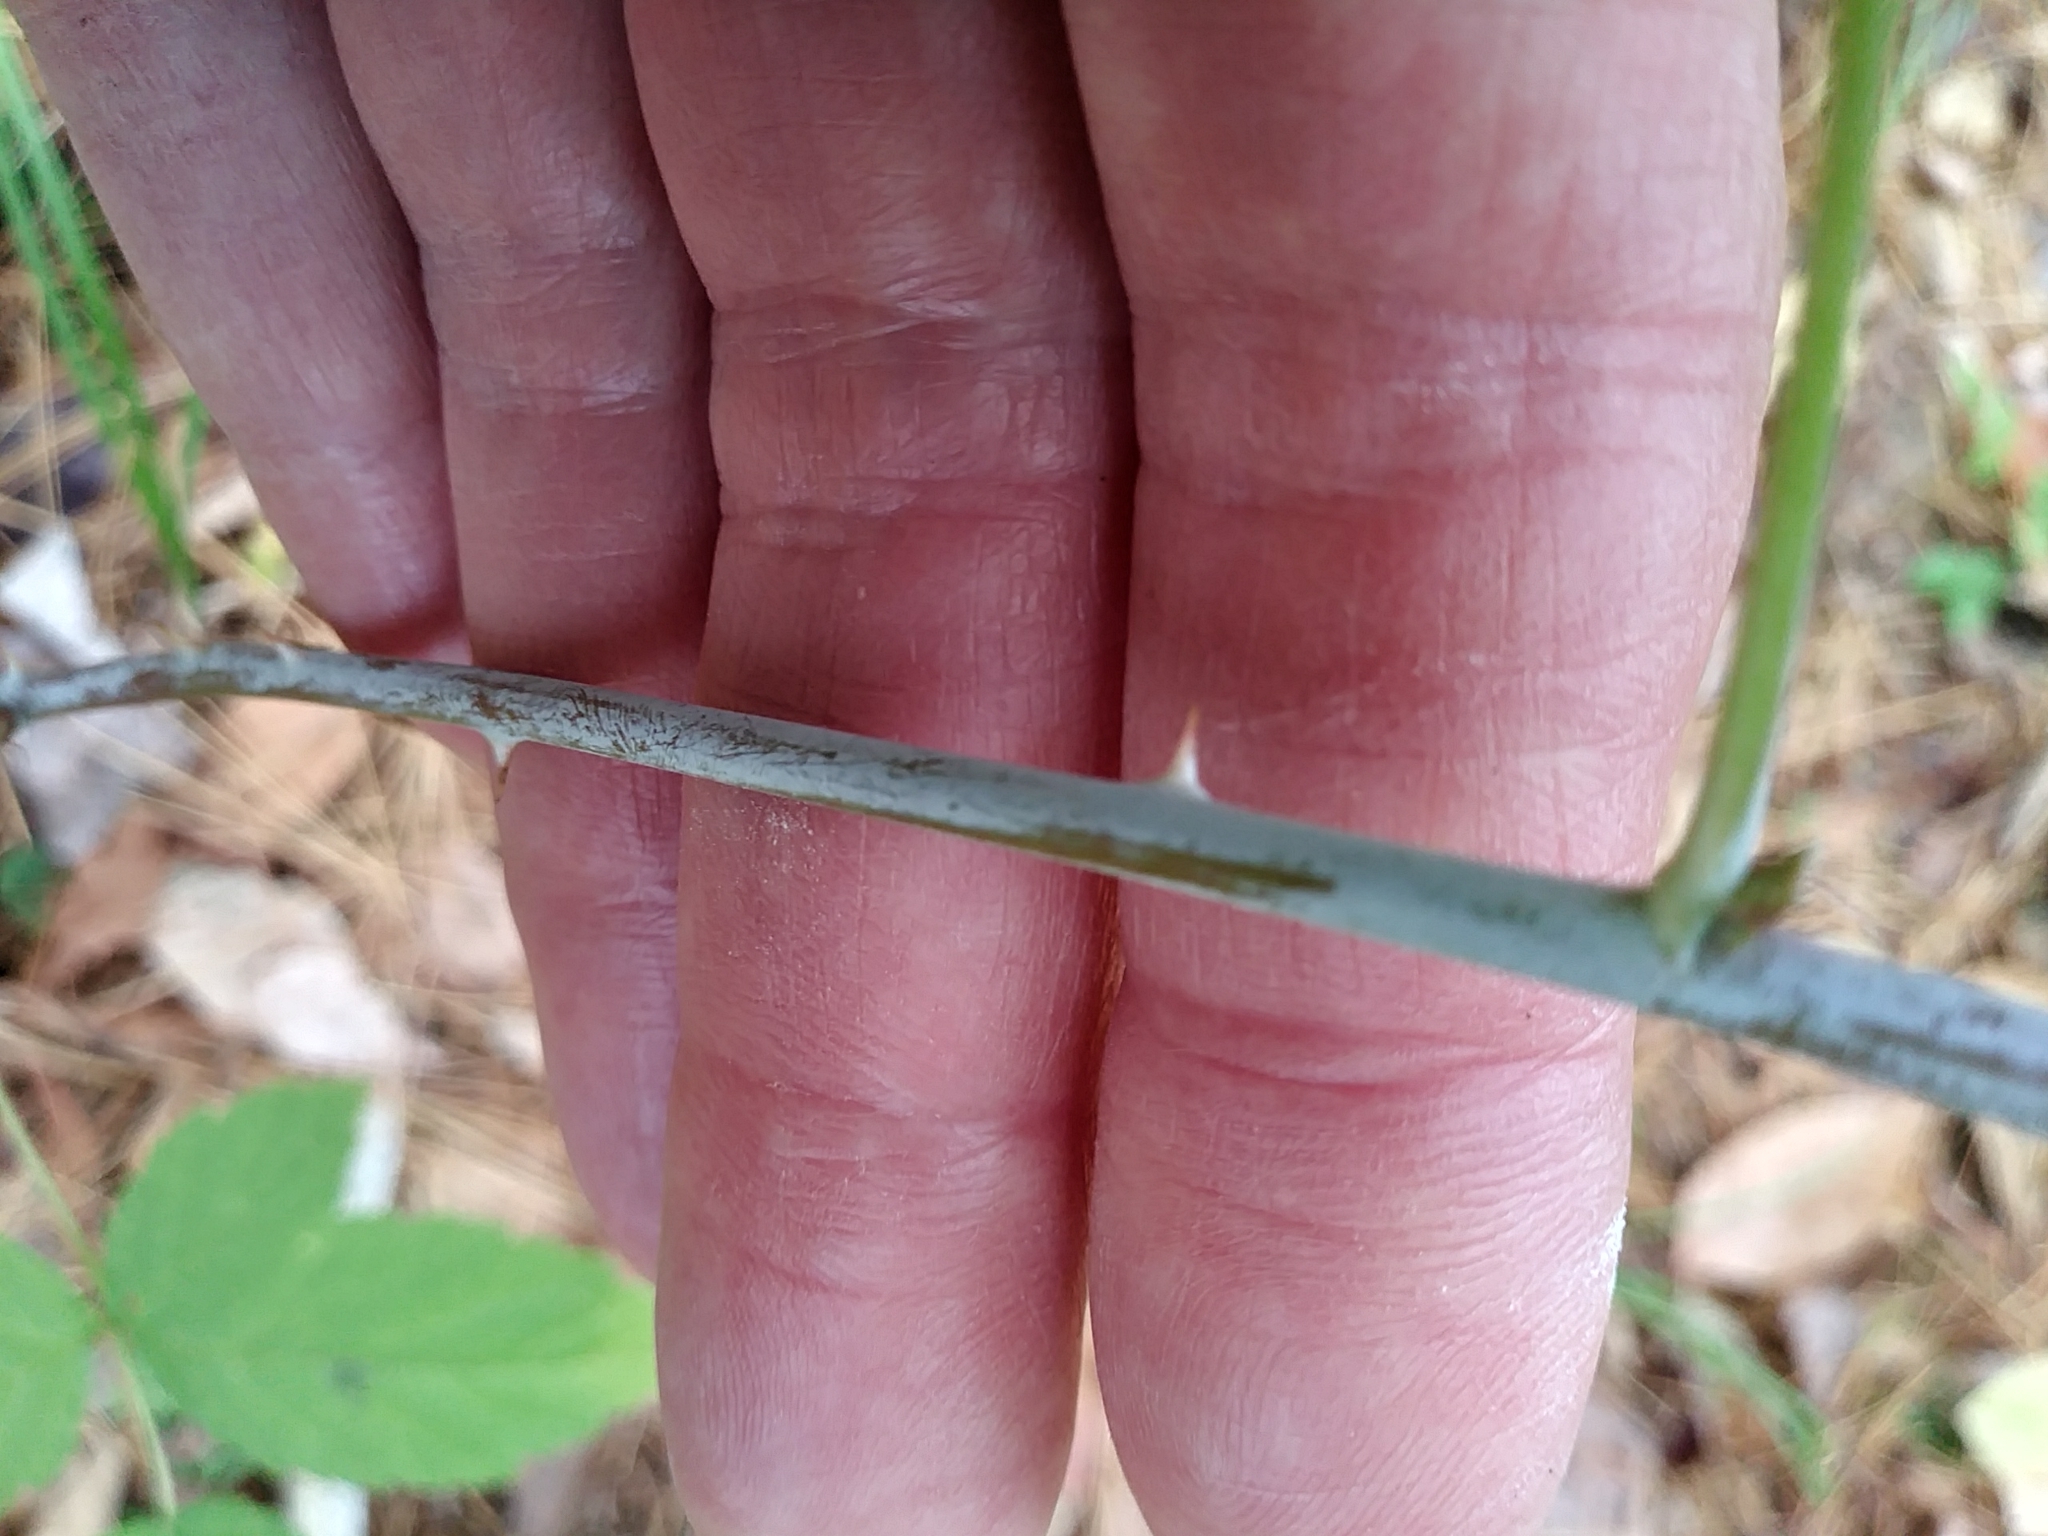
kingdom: Animalia
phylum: Arthropoda
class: Insecta
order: Diptera
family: Agromyzidae
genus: Agromyza
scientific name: Agromyza vockerothi
